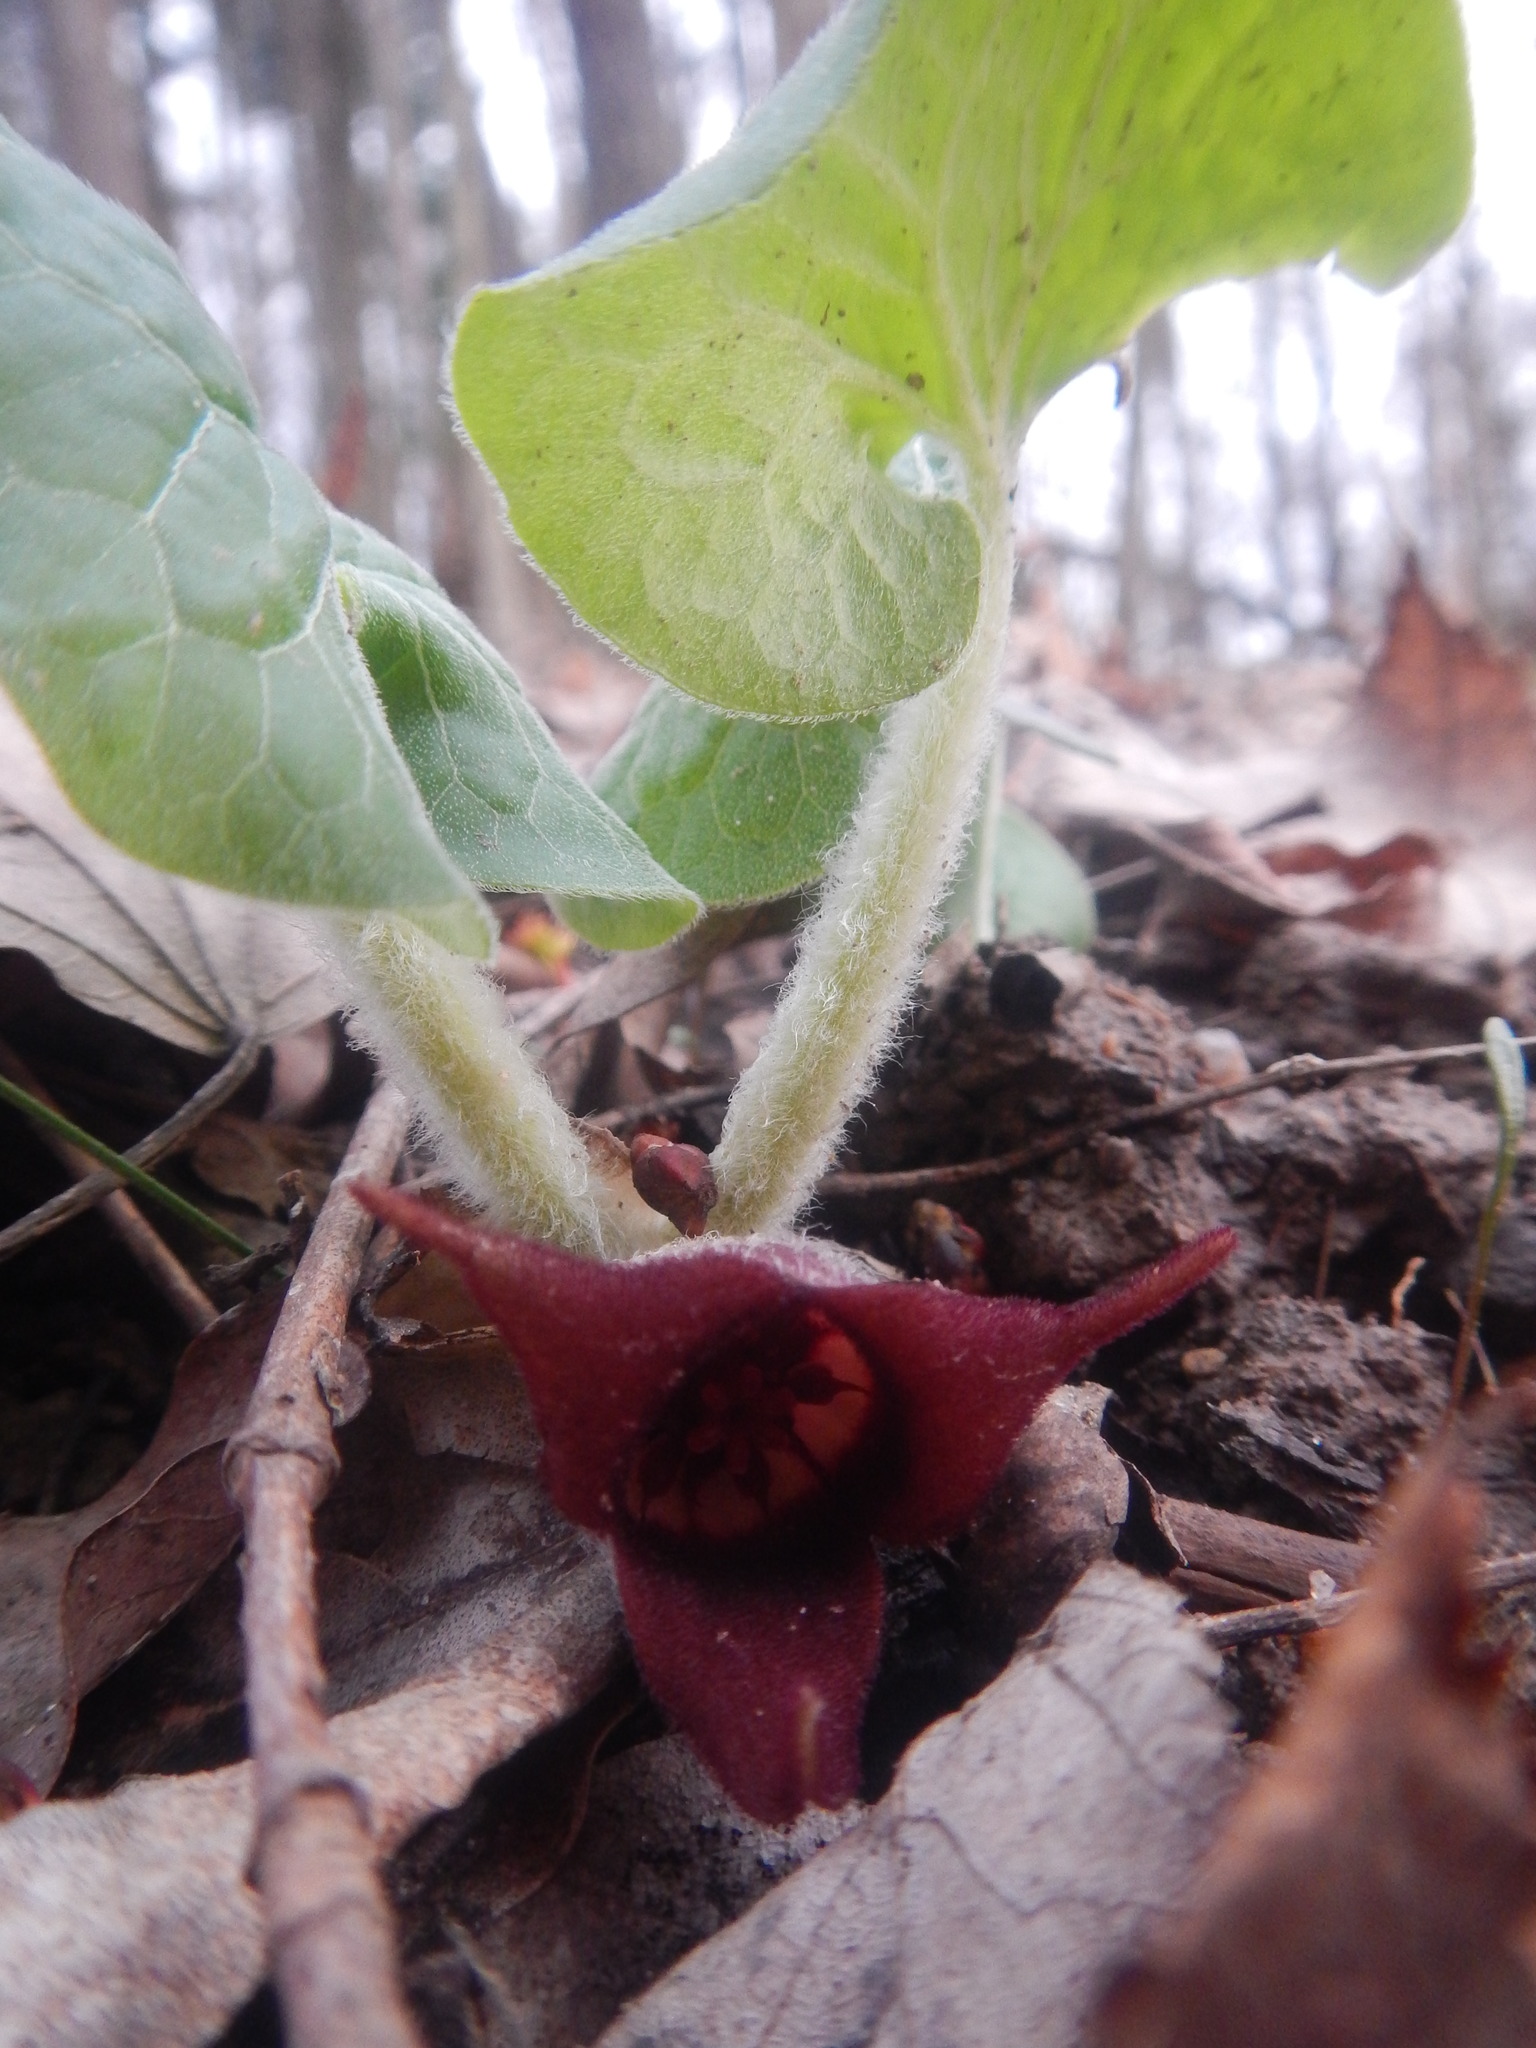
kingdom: Plantae
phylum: Tracheophyta
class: Magnoliopsida
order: Piperales
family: Aristolochiaceae
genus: Asarum
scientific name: Asarum canadense
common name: Wild ginger
